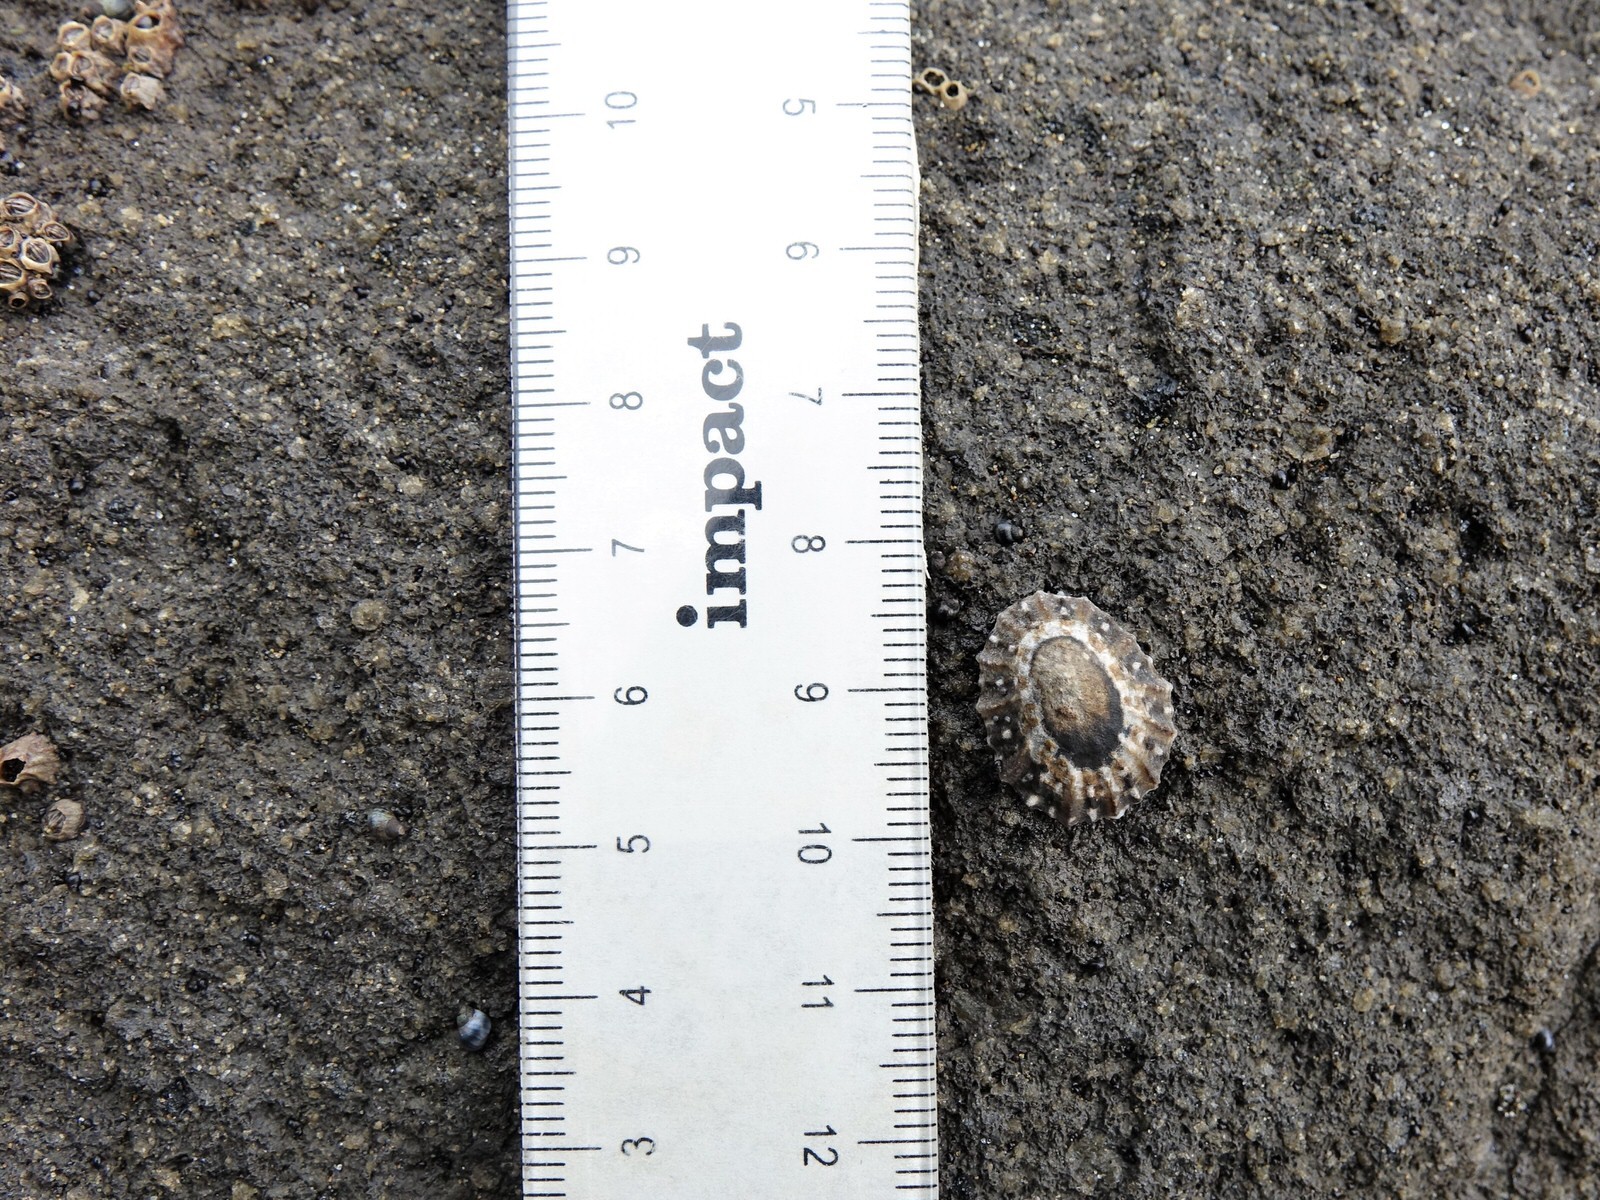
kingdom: Animalia
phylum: Mollusca
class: Gastropoda
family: Nacellidae
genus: Cellana
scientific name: Cellana ornata
